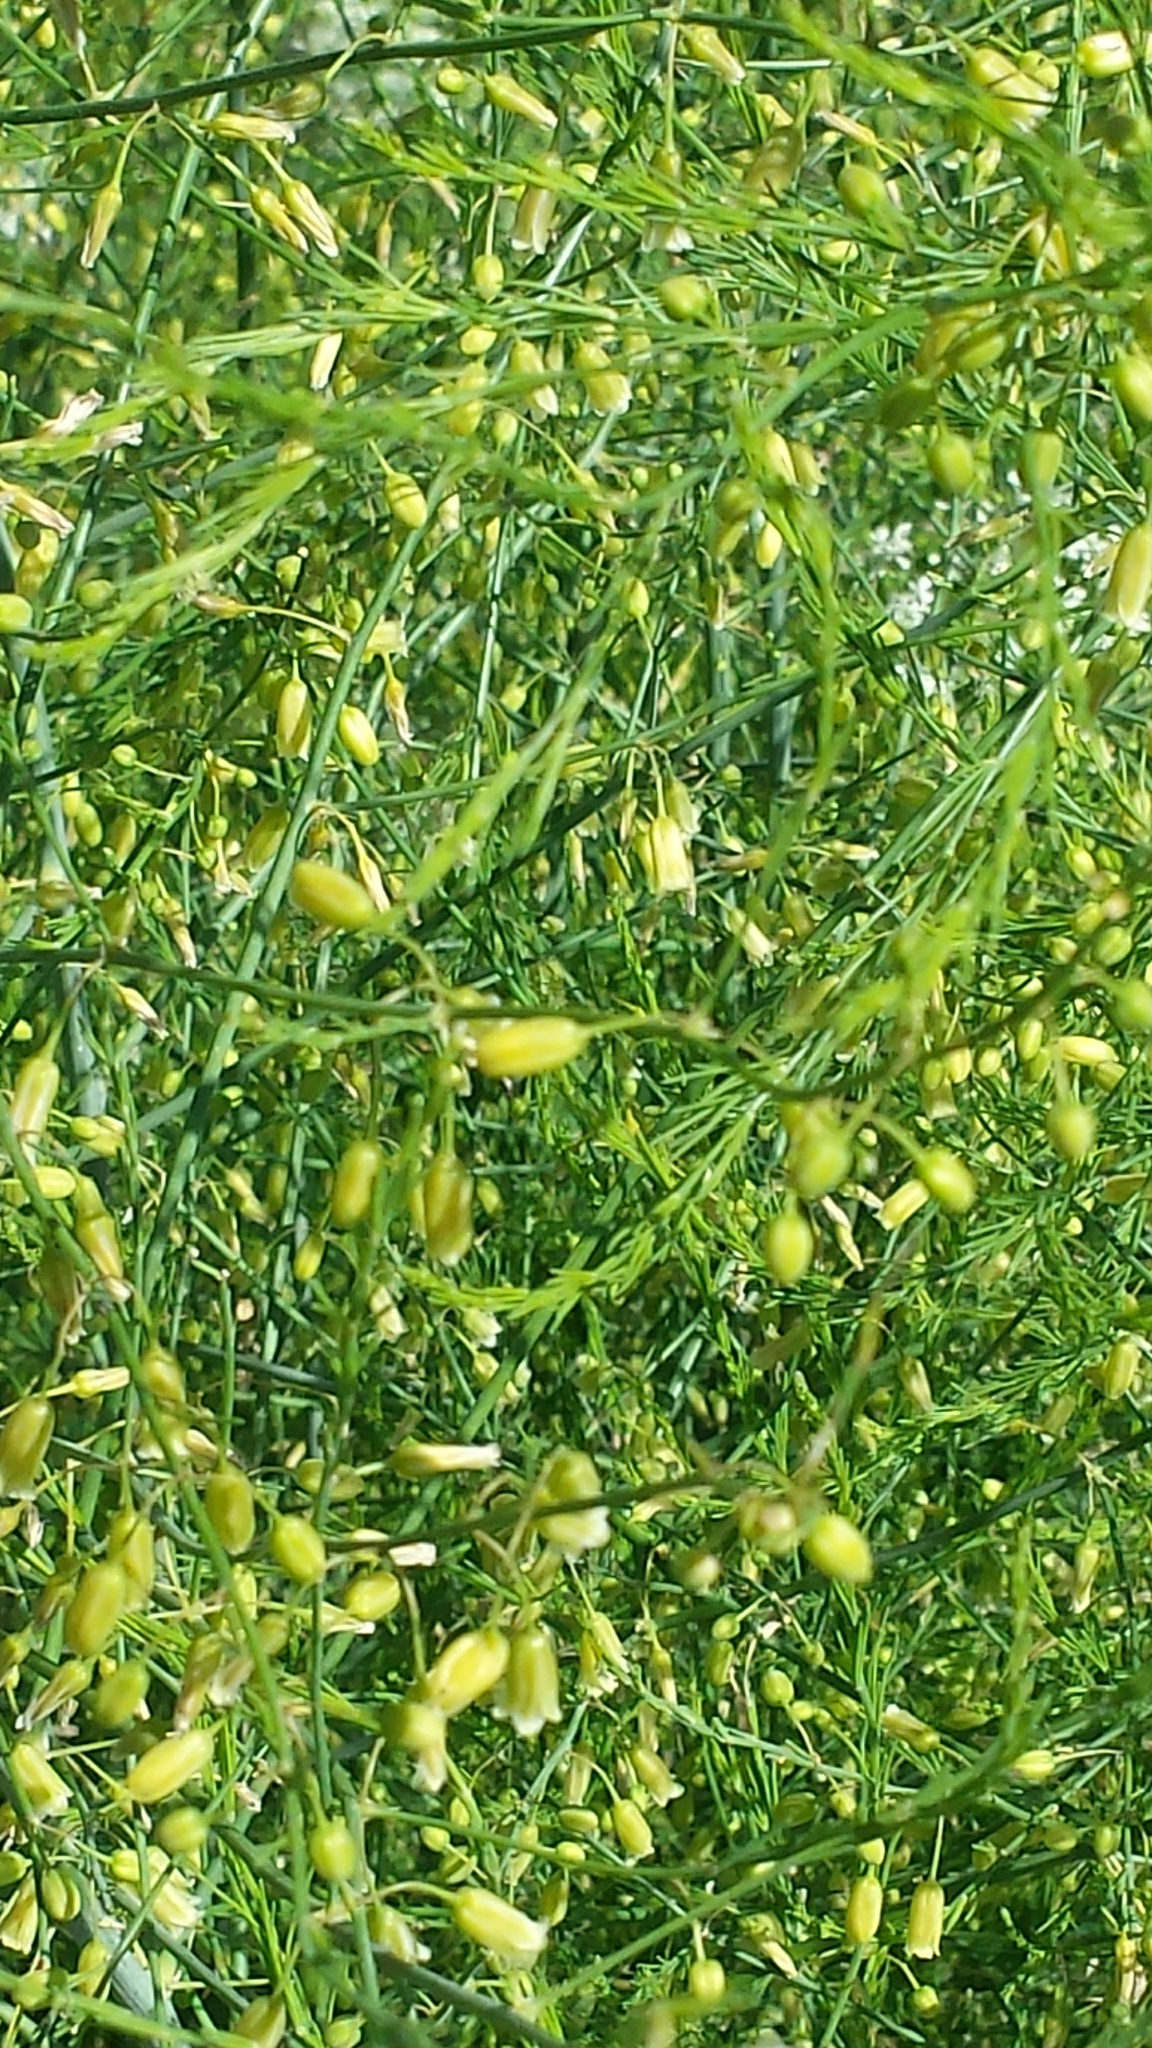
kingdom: Plantae
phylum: Tracheophyta
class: Liliopsida
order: Asparagales
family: Asparagaceae
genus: Asparagus
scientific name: Asparagus officinalis
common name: Garden asparagus
